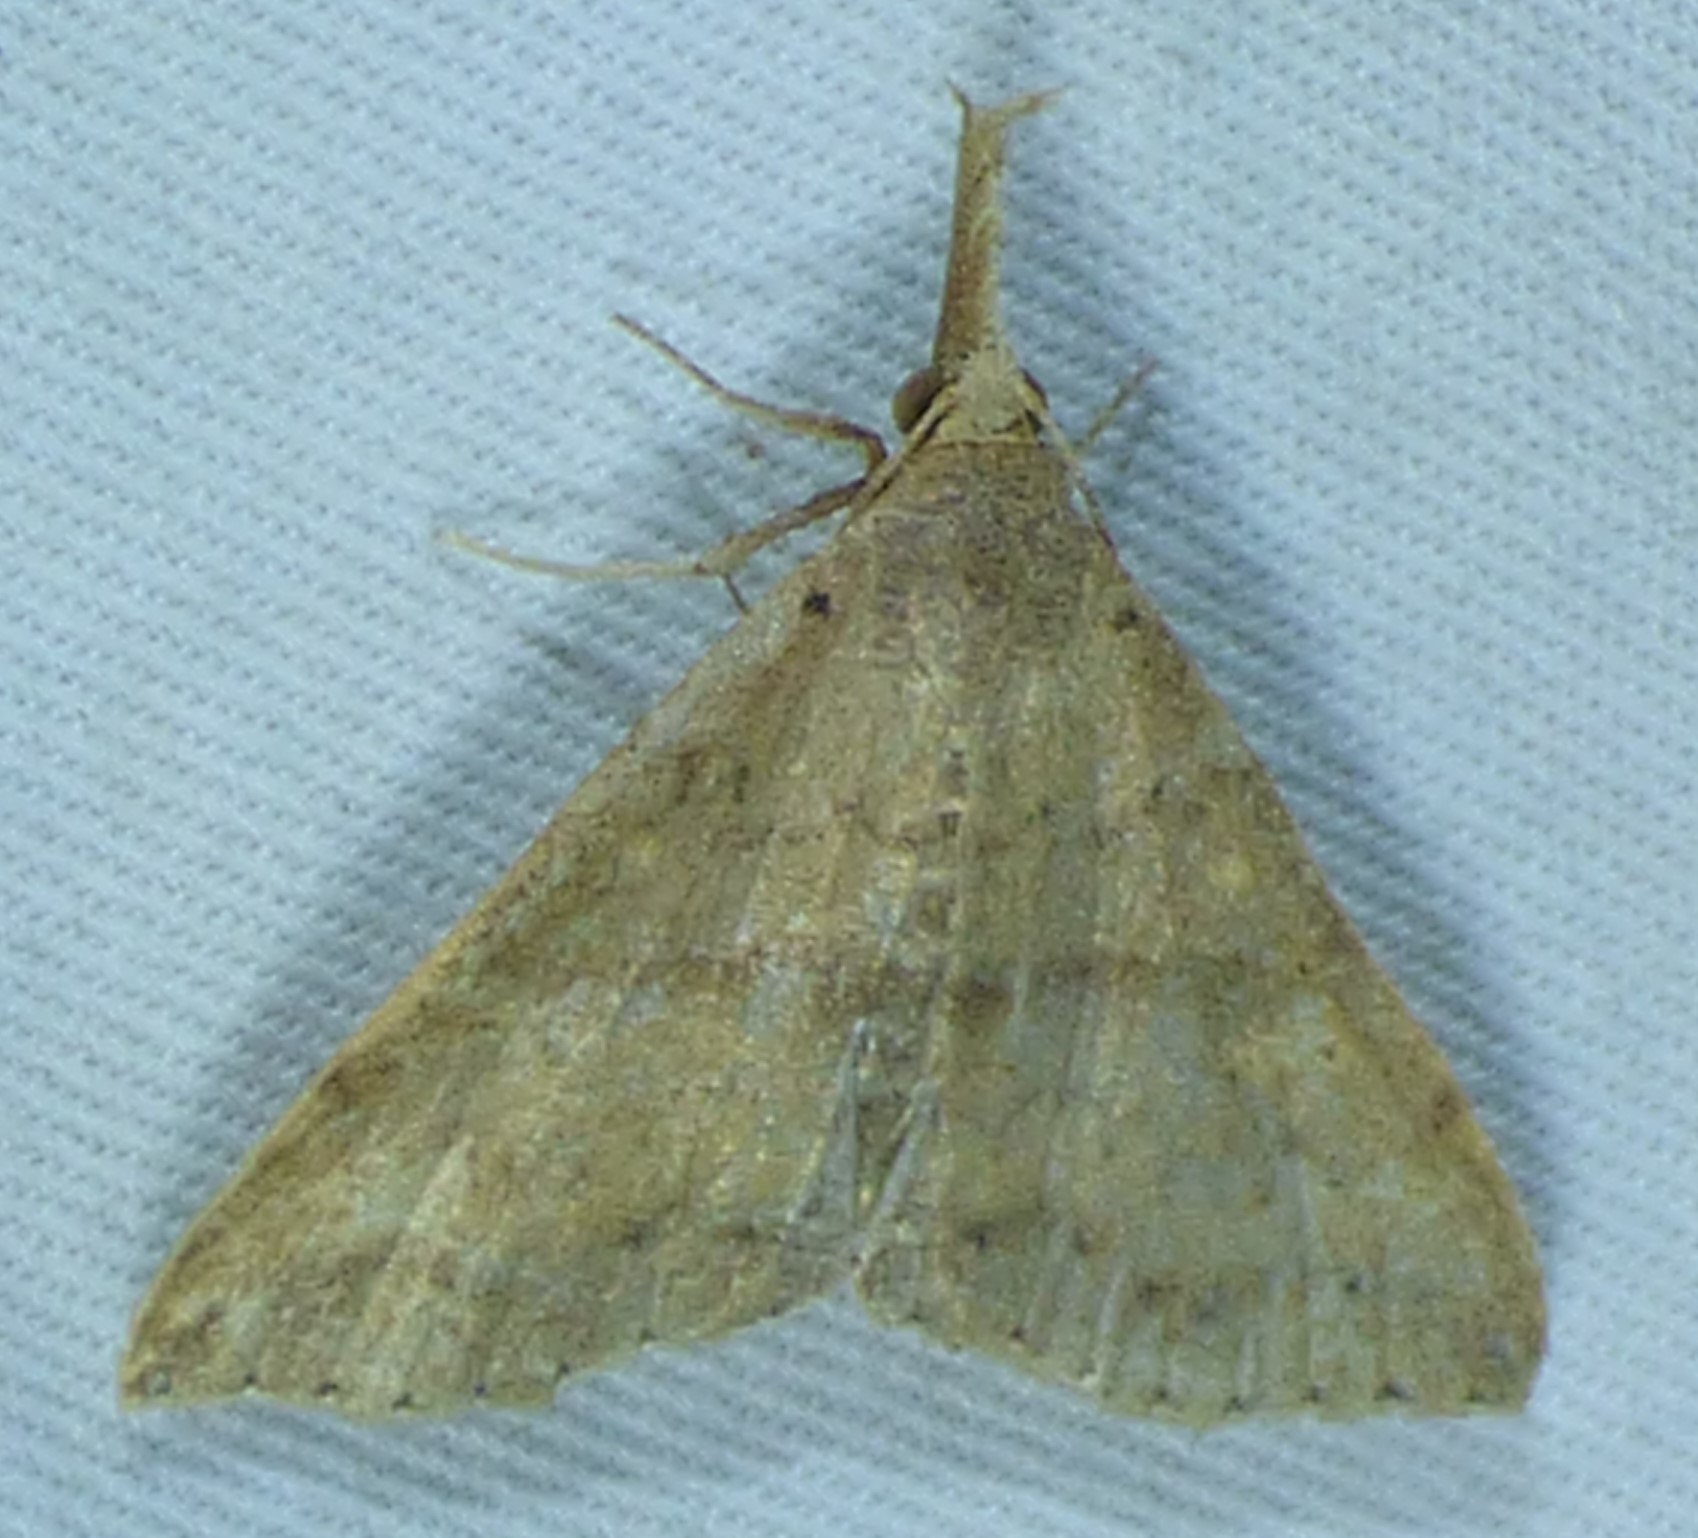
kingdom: Animalia
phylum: Arthropoda
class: Insecta
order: Lepidoptera
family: Erebidae
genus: Renia
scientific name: Renia discoloralis
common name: Discolored renia moth
